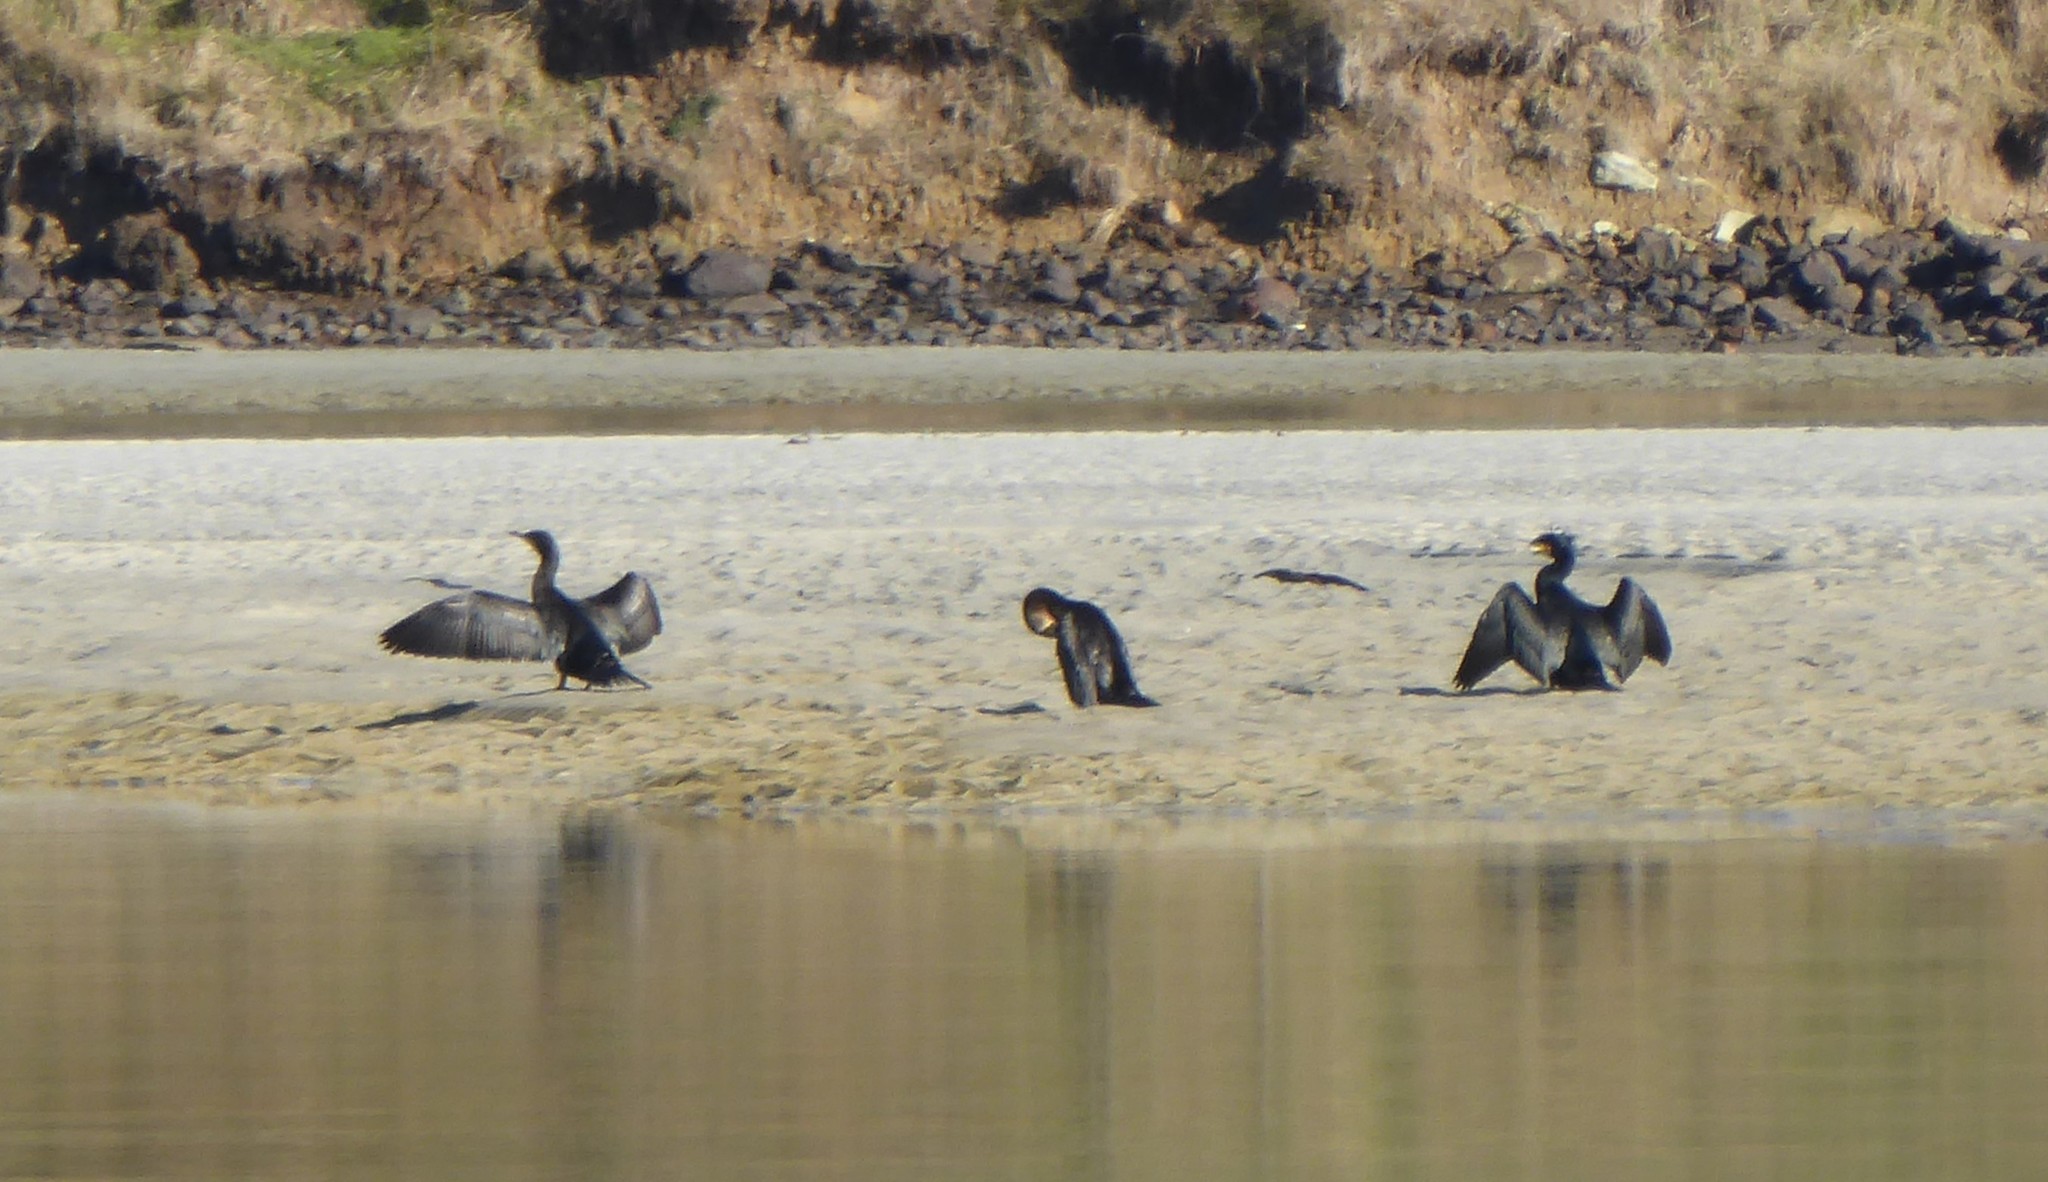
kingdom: Animalia
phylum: Chordata
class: Aves
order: Suliformes
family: Phalacrocoracidae
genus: Phalacrocorax
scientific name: Phalacrocorax carbo
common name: Great cormorant
